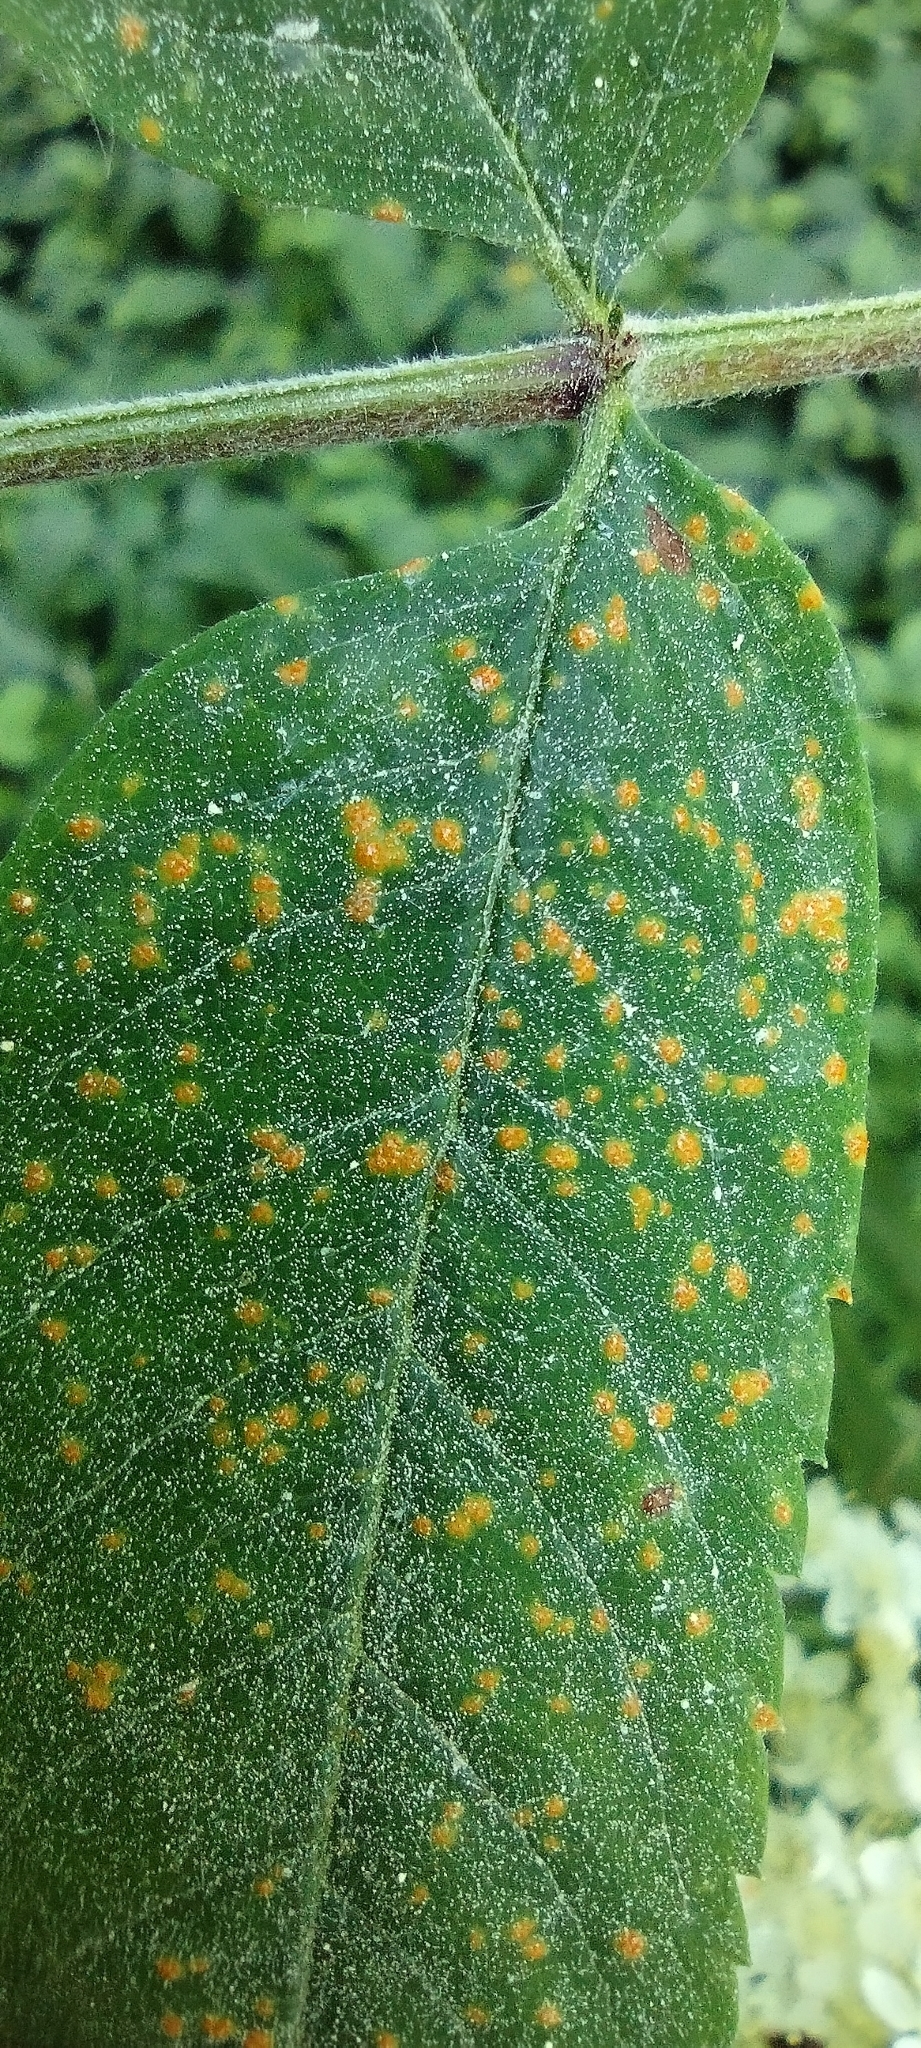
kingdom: Fungi
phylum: Basidiomycota
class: Pucciniomycetes
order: Pucciniales
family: Gymnosporangiaceae
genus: Gymnosporangium
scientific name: Gymnosporangium cornutum
